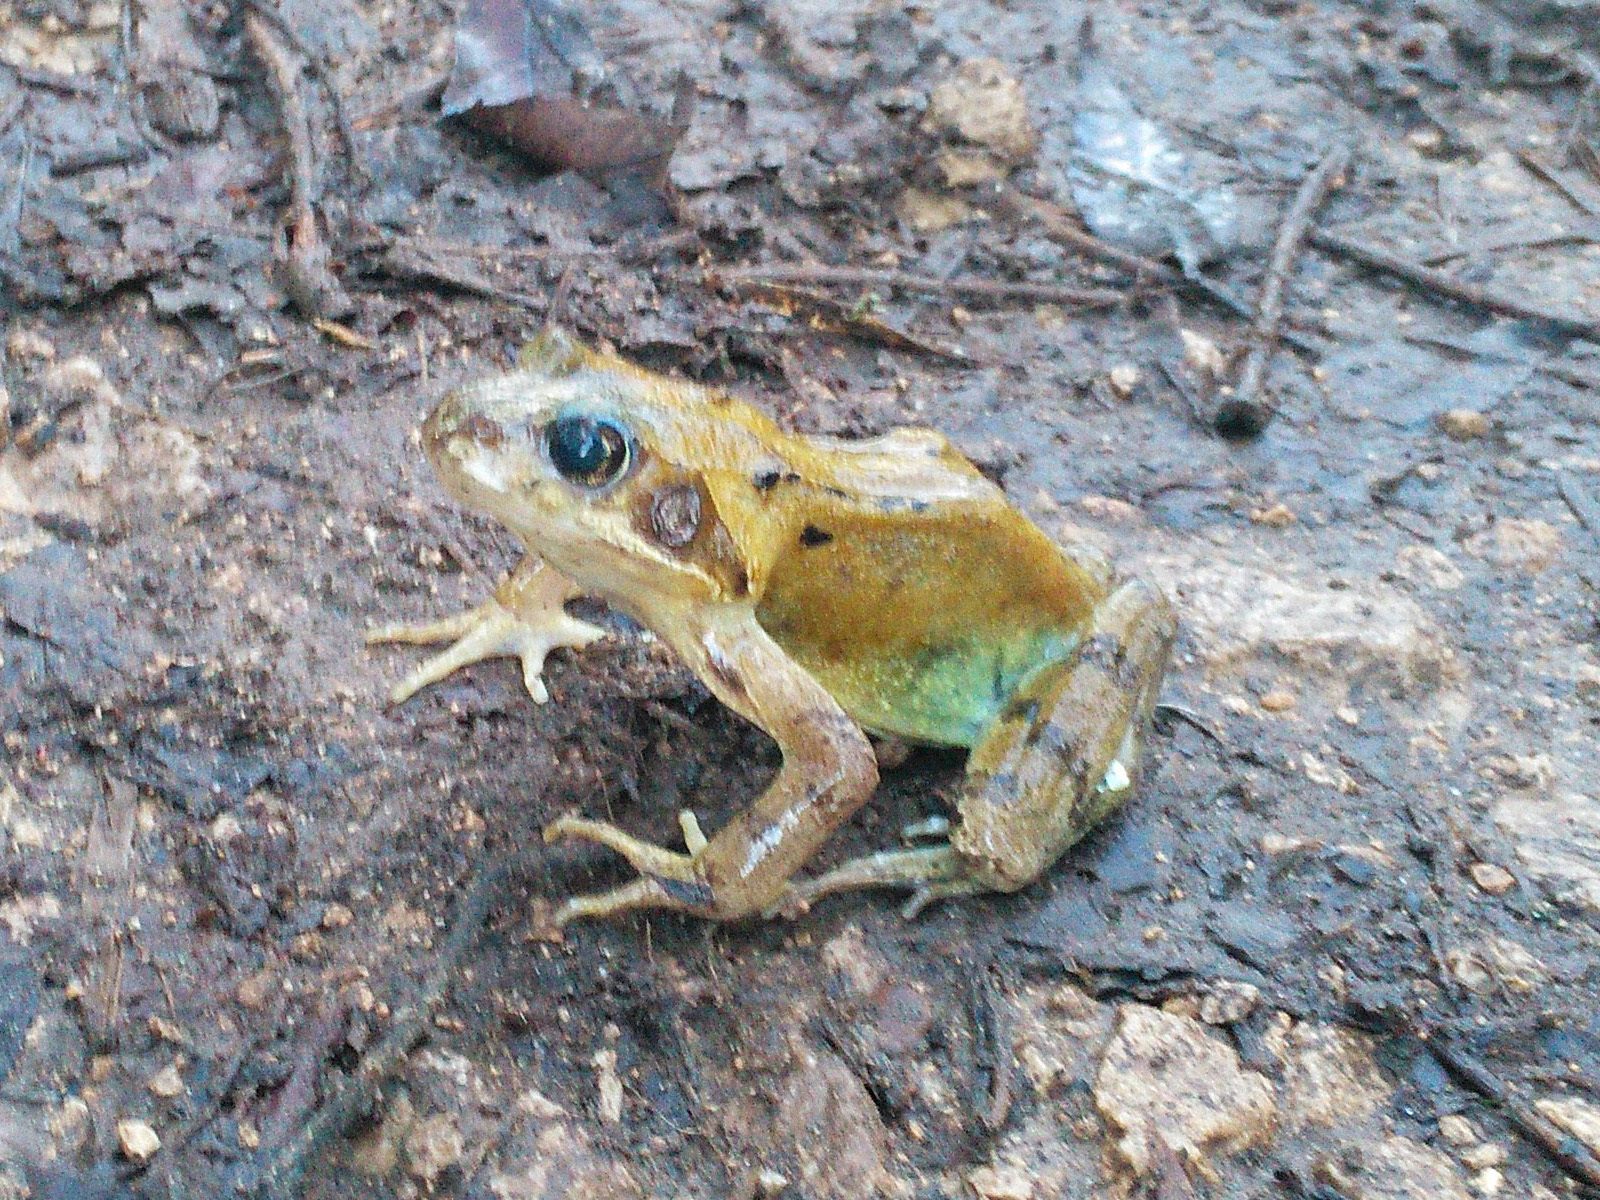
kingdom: Animalia
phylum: Chordata
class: Amphibia
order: Anura
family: Ranidae
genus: Rana
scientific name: Rana temporaria
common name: Common frog
